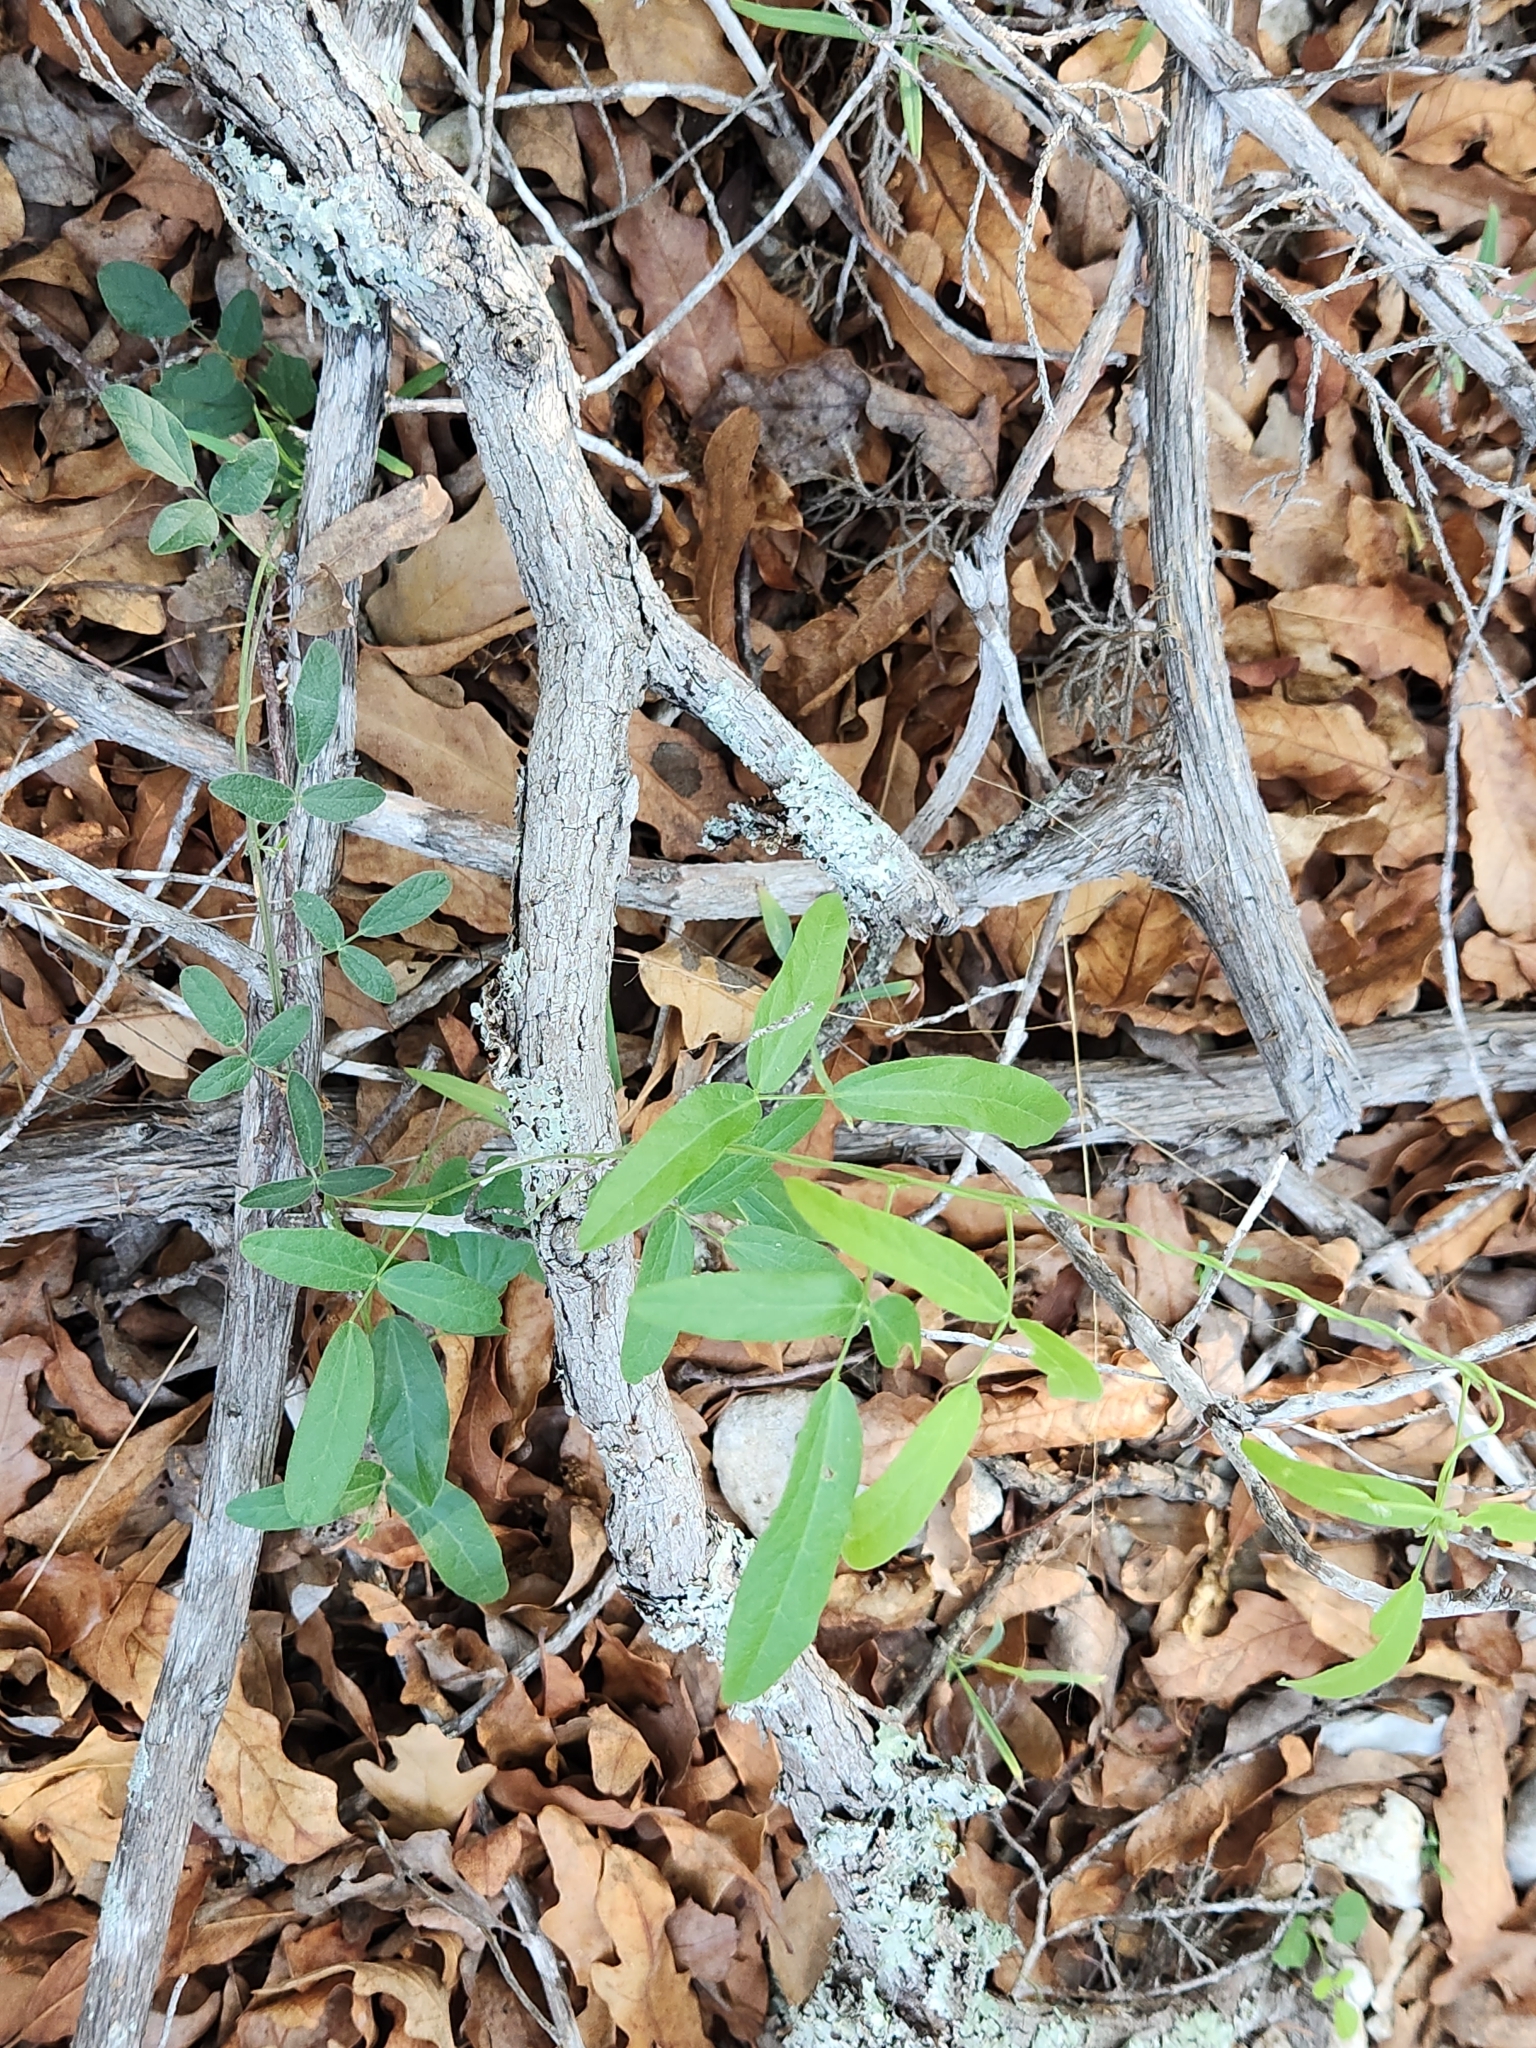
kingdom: Plantae
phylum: Tracheophyta
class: Magnoliopsida
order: Fabales
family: Fabaceae
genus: Rhynchosia
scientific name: Rhynchosia senna
